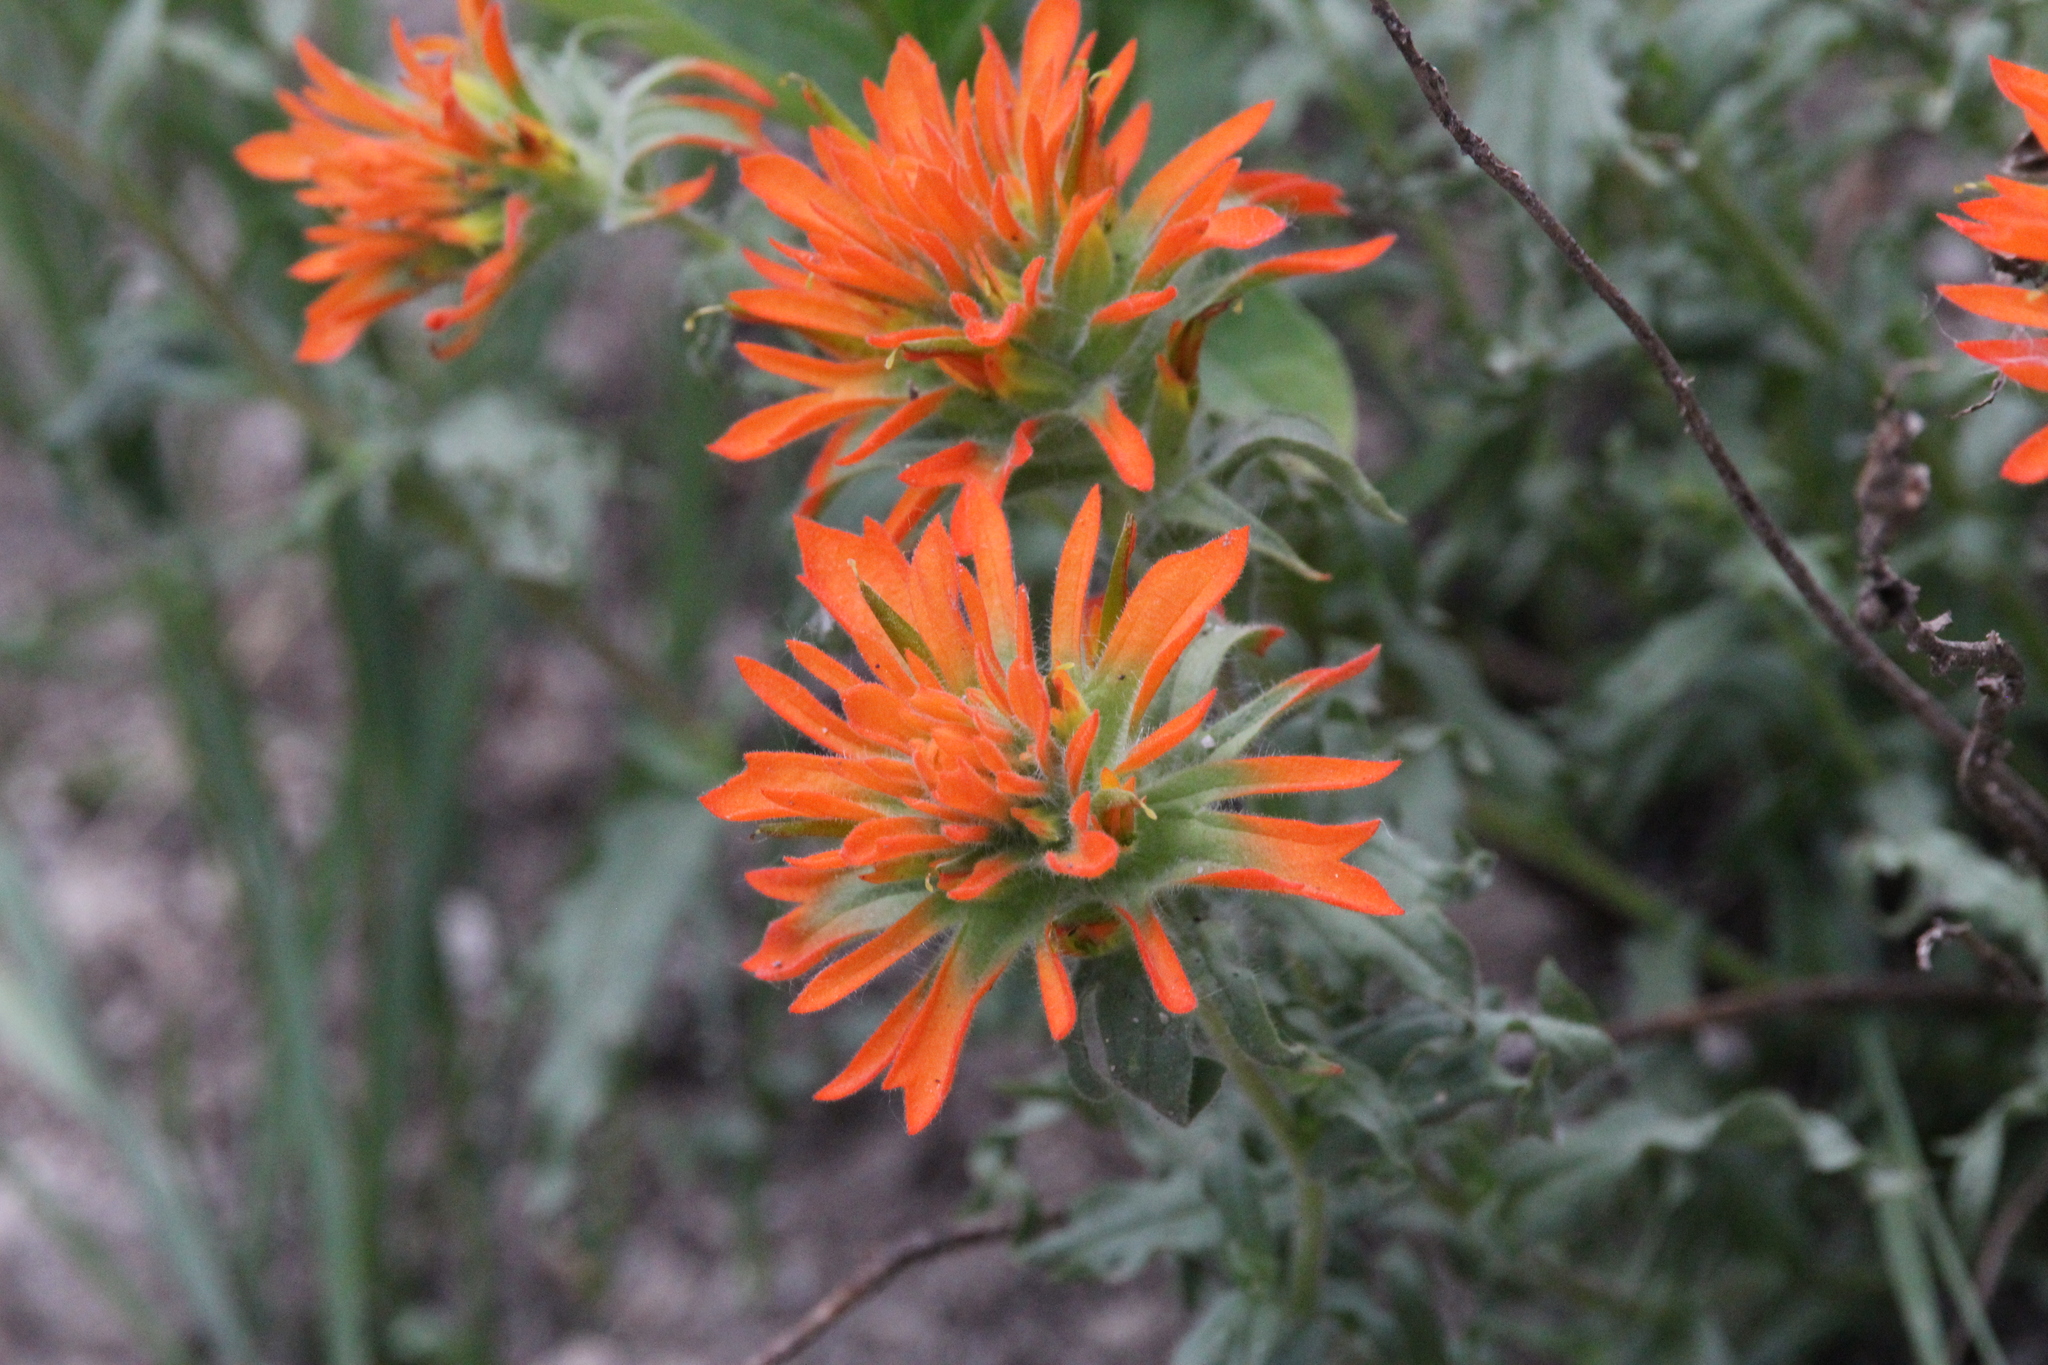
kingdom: Plantae
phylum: Tracheophyta
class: Magnoliopsida
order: Lamiales
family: Orobanchaceae
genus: Castilleja
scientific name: Castilleja applegatei
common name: Wavy-leaf paintbrush
